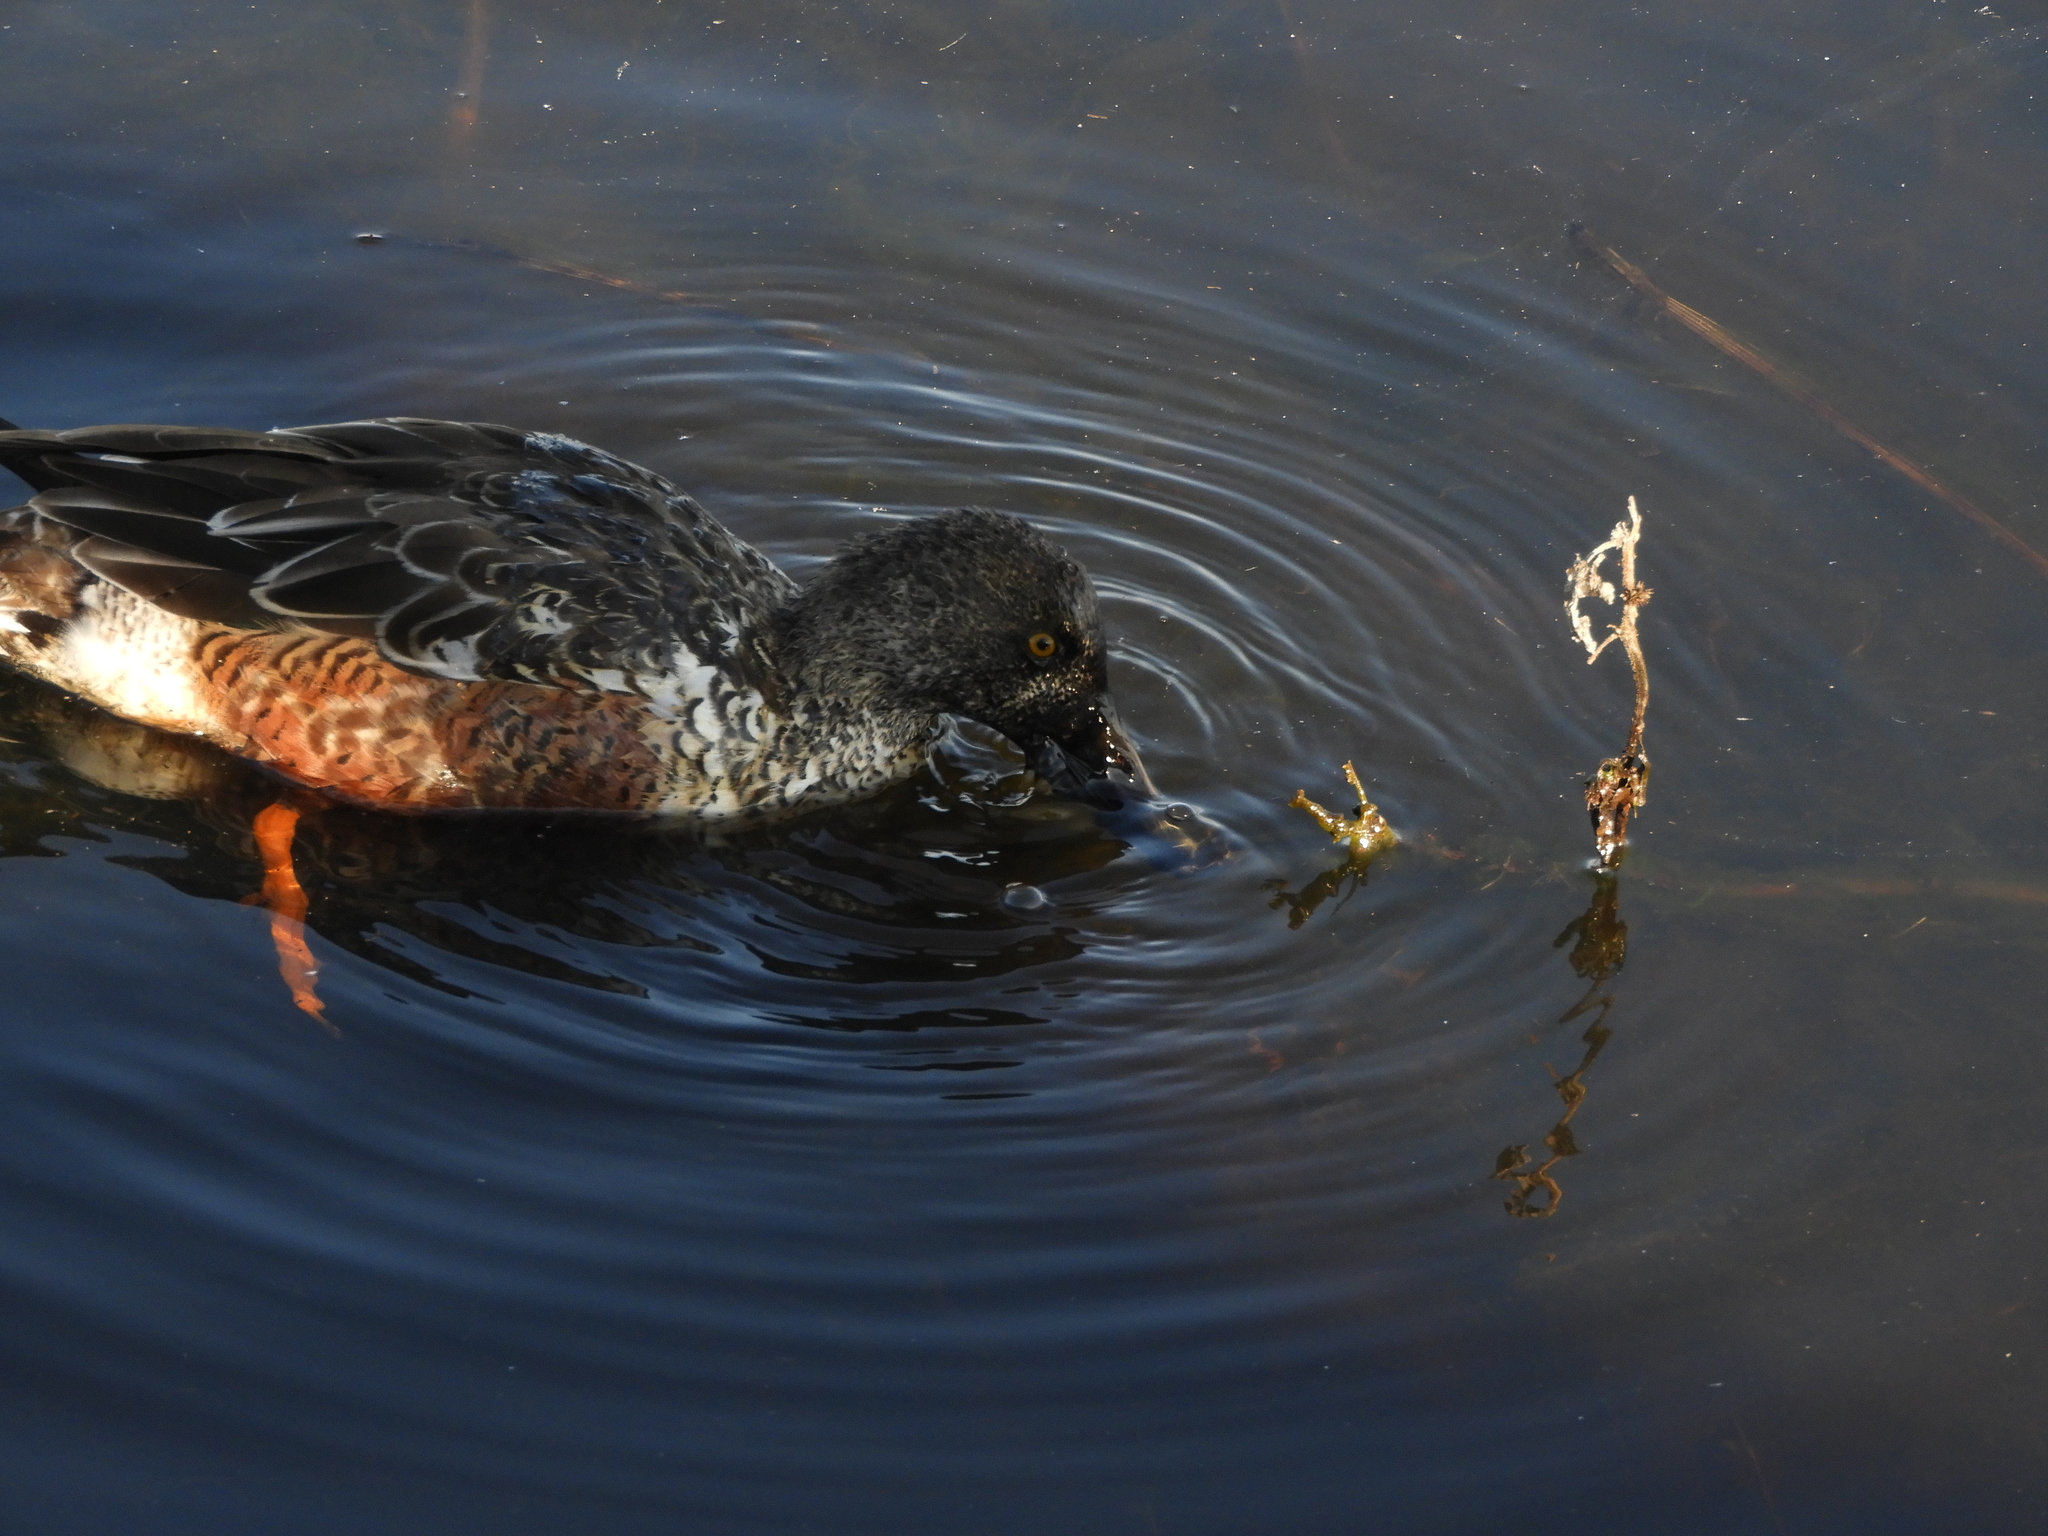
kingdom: Animalia
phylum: Chordata
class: Aves
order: Anseriformes
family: Anatidae
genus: Spatula
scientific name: Spatula clypeata
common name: Northern shoveler
